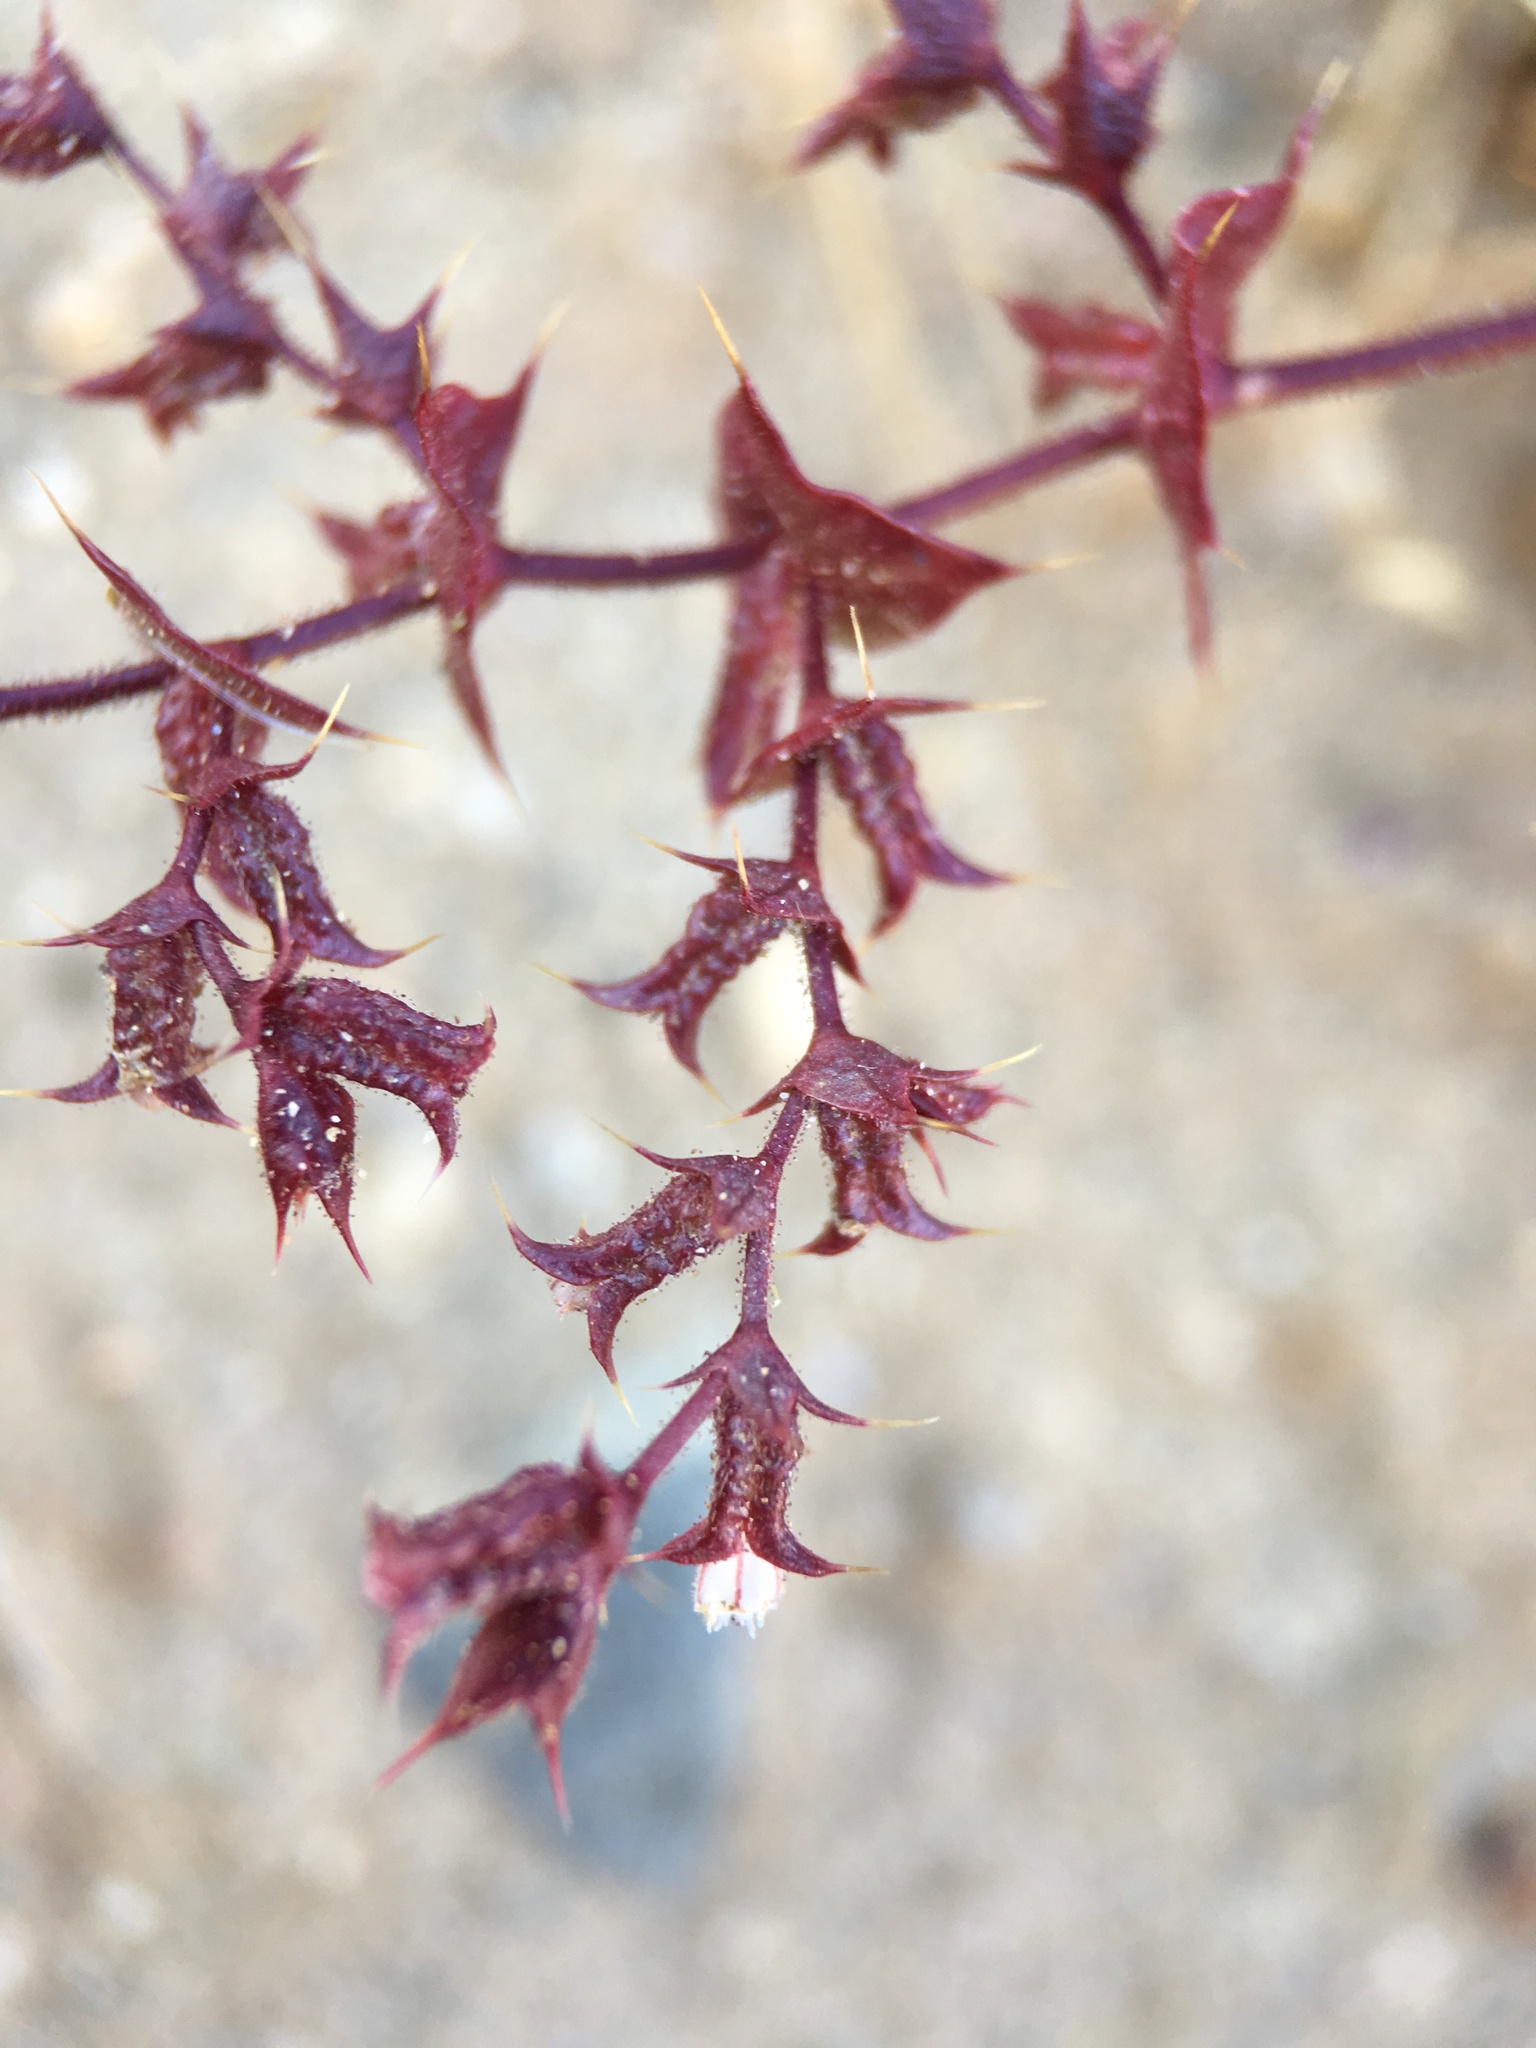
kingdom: Plantae
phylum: Tracheophyta
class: Magnoliopsida
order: Caryophyllales
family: Polygonaceae
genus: Mucronea
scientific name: Mucronea perfoliata
